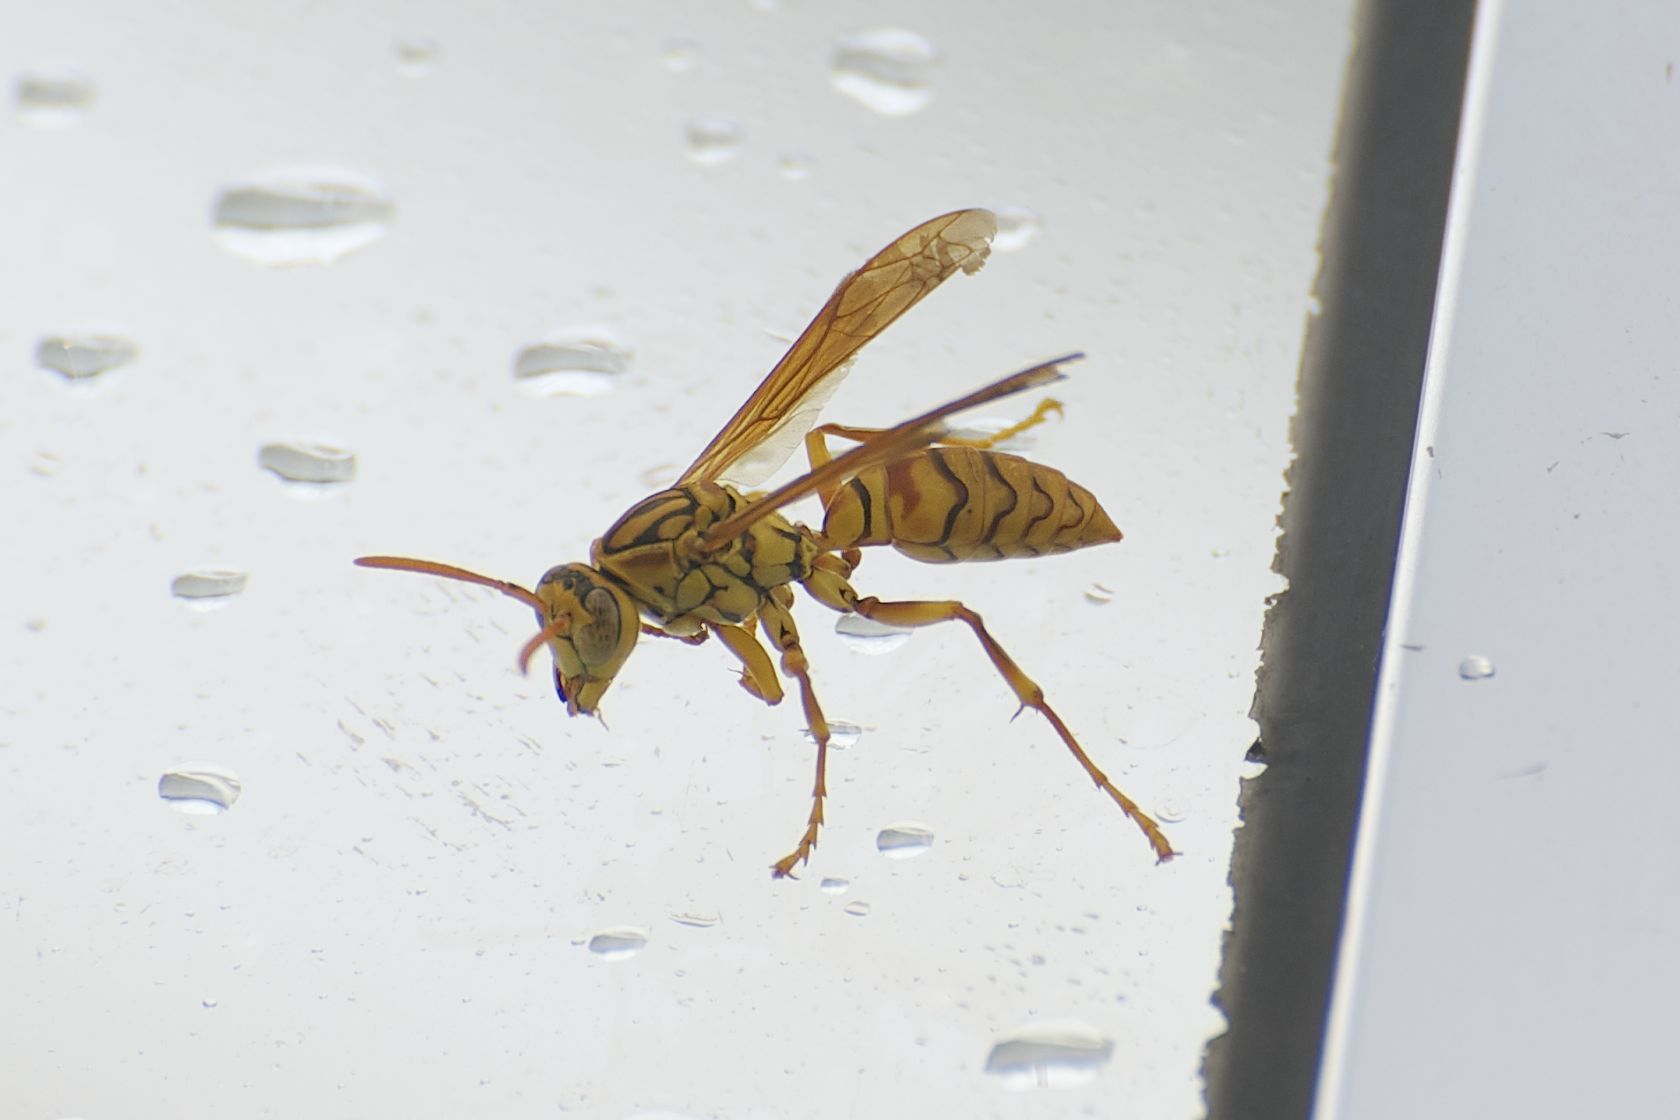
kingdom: Animalia
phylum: Arthropoda
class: Insecta
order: Hymenoptera
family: Eumenidae
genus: Polistes
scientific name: Polistes olivaceus
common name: Paper wasp
